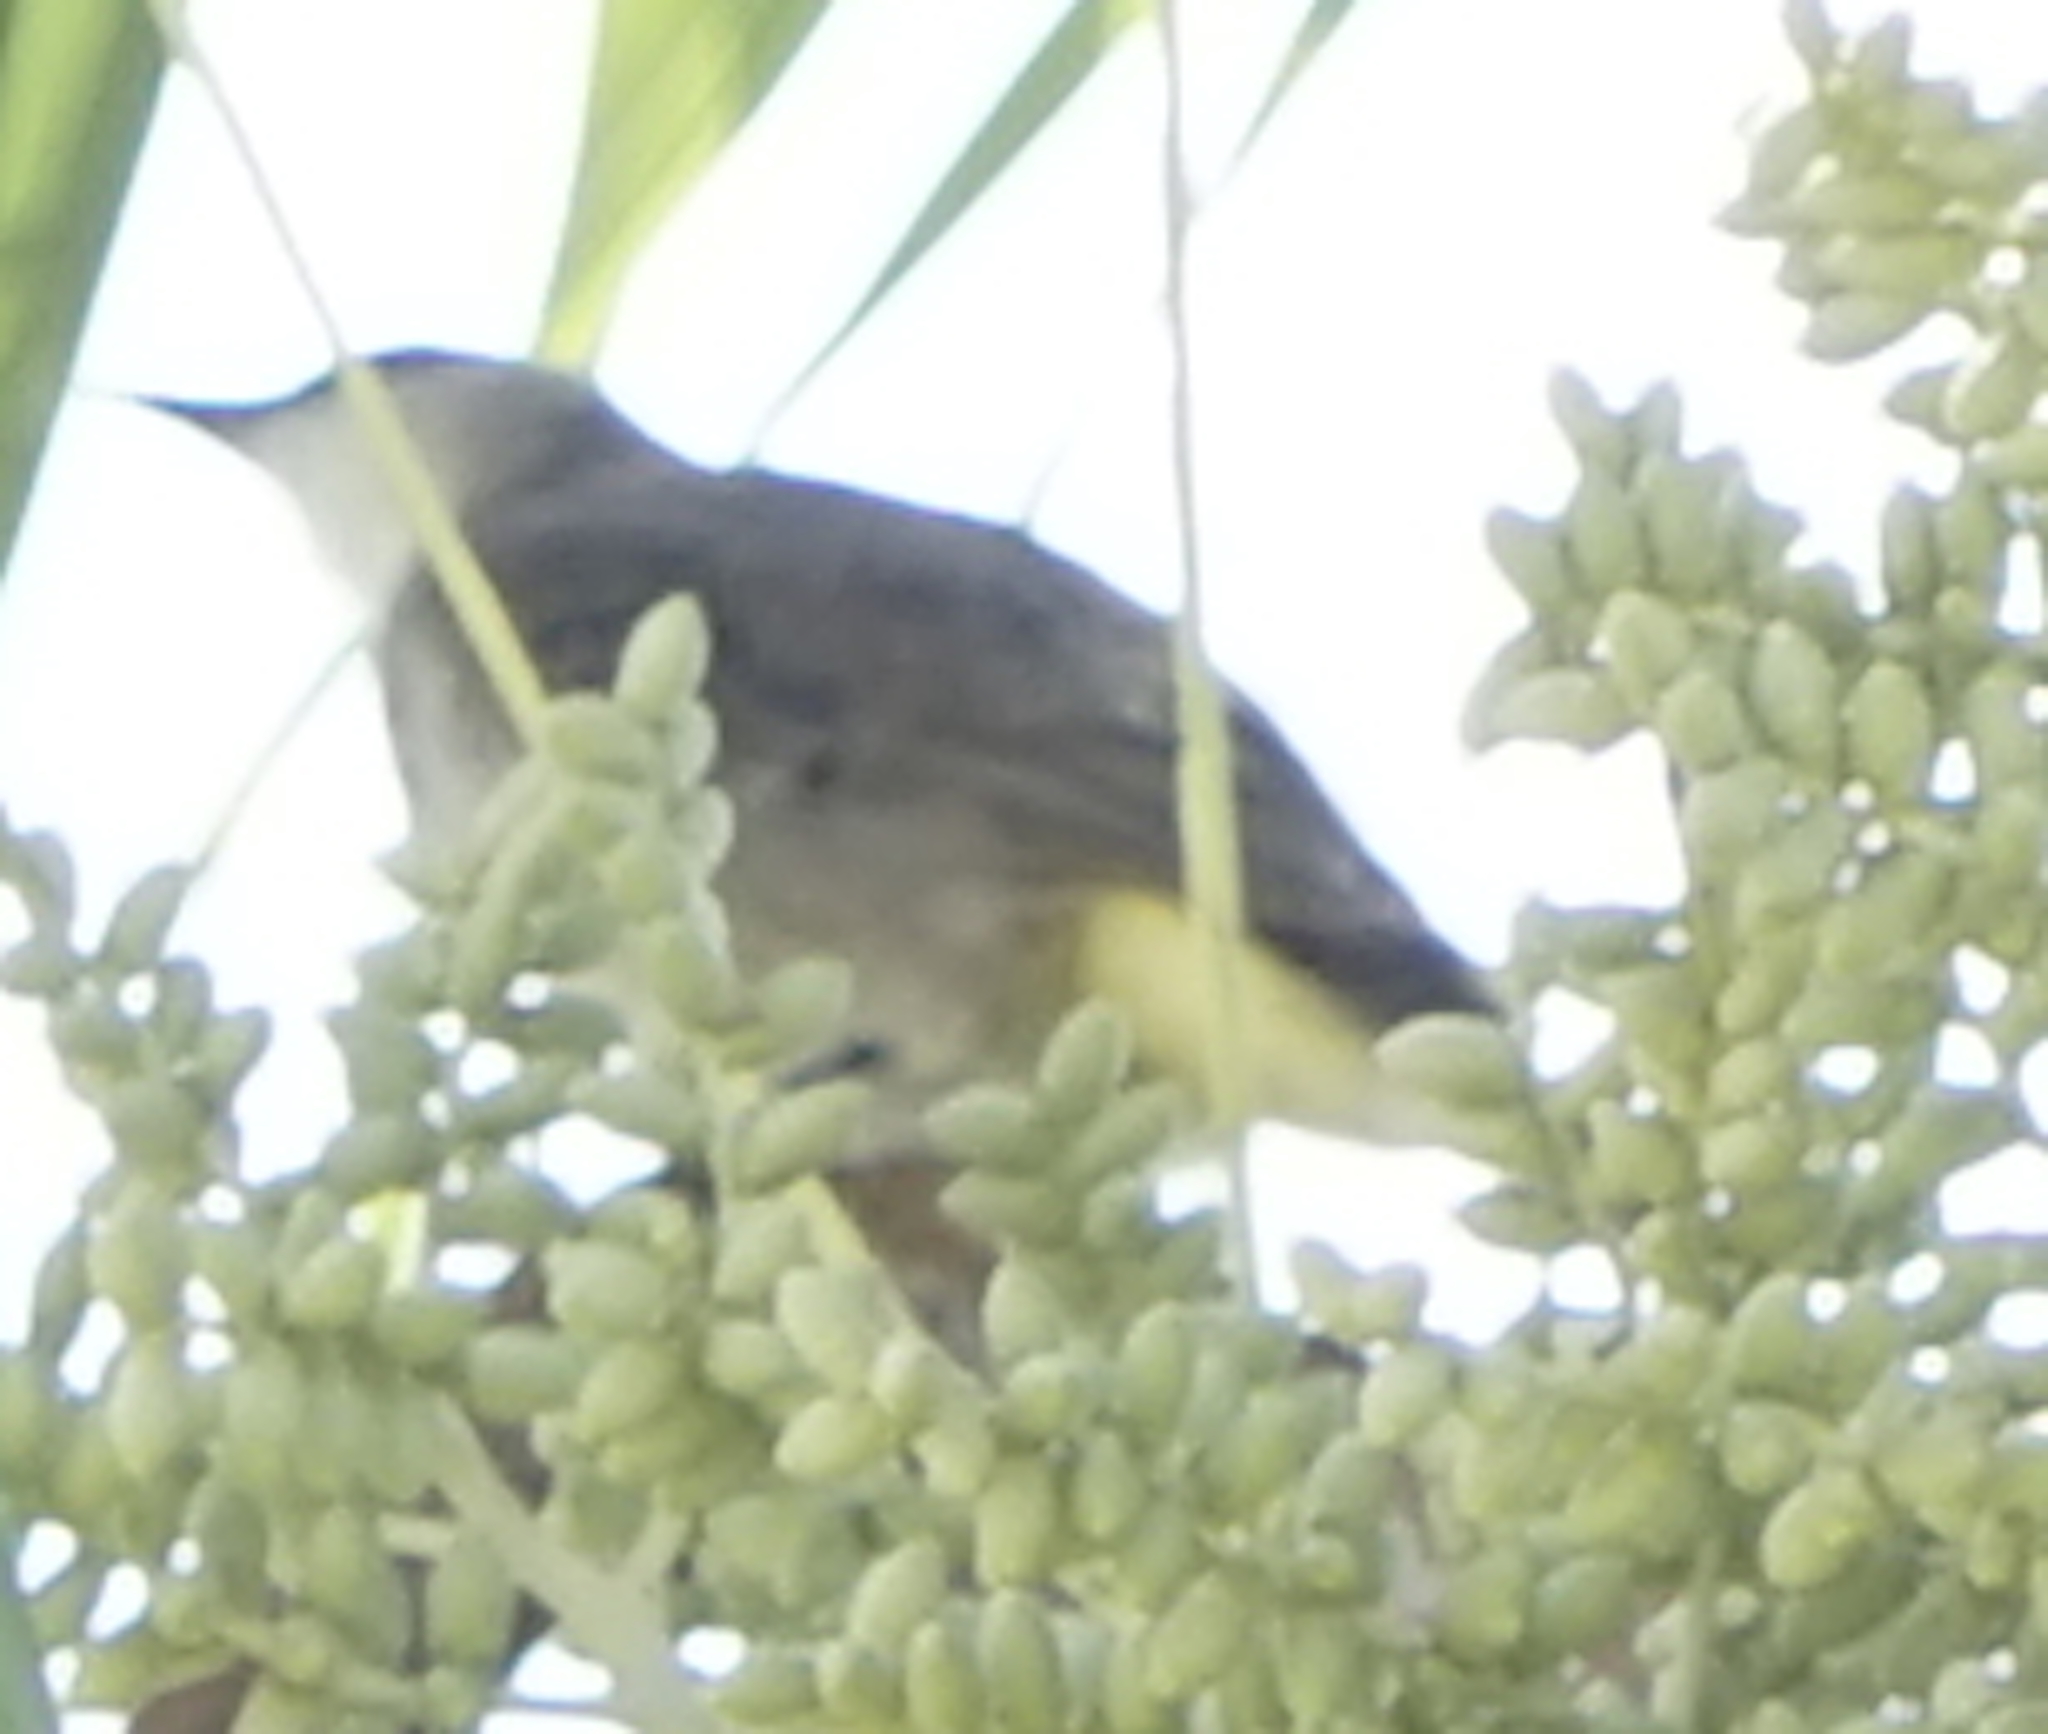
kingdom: Animalia
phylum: Chordata
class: Aves
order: Passeriformes
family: Pycnonotidae
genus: Pycnonotus
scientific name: Pycnonotus goiavier
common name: Yellow-vented bulbul
